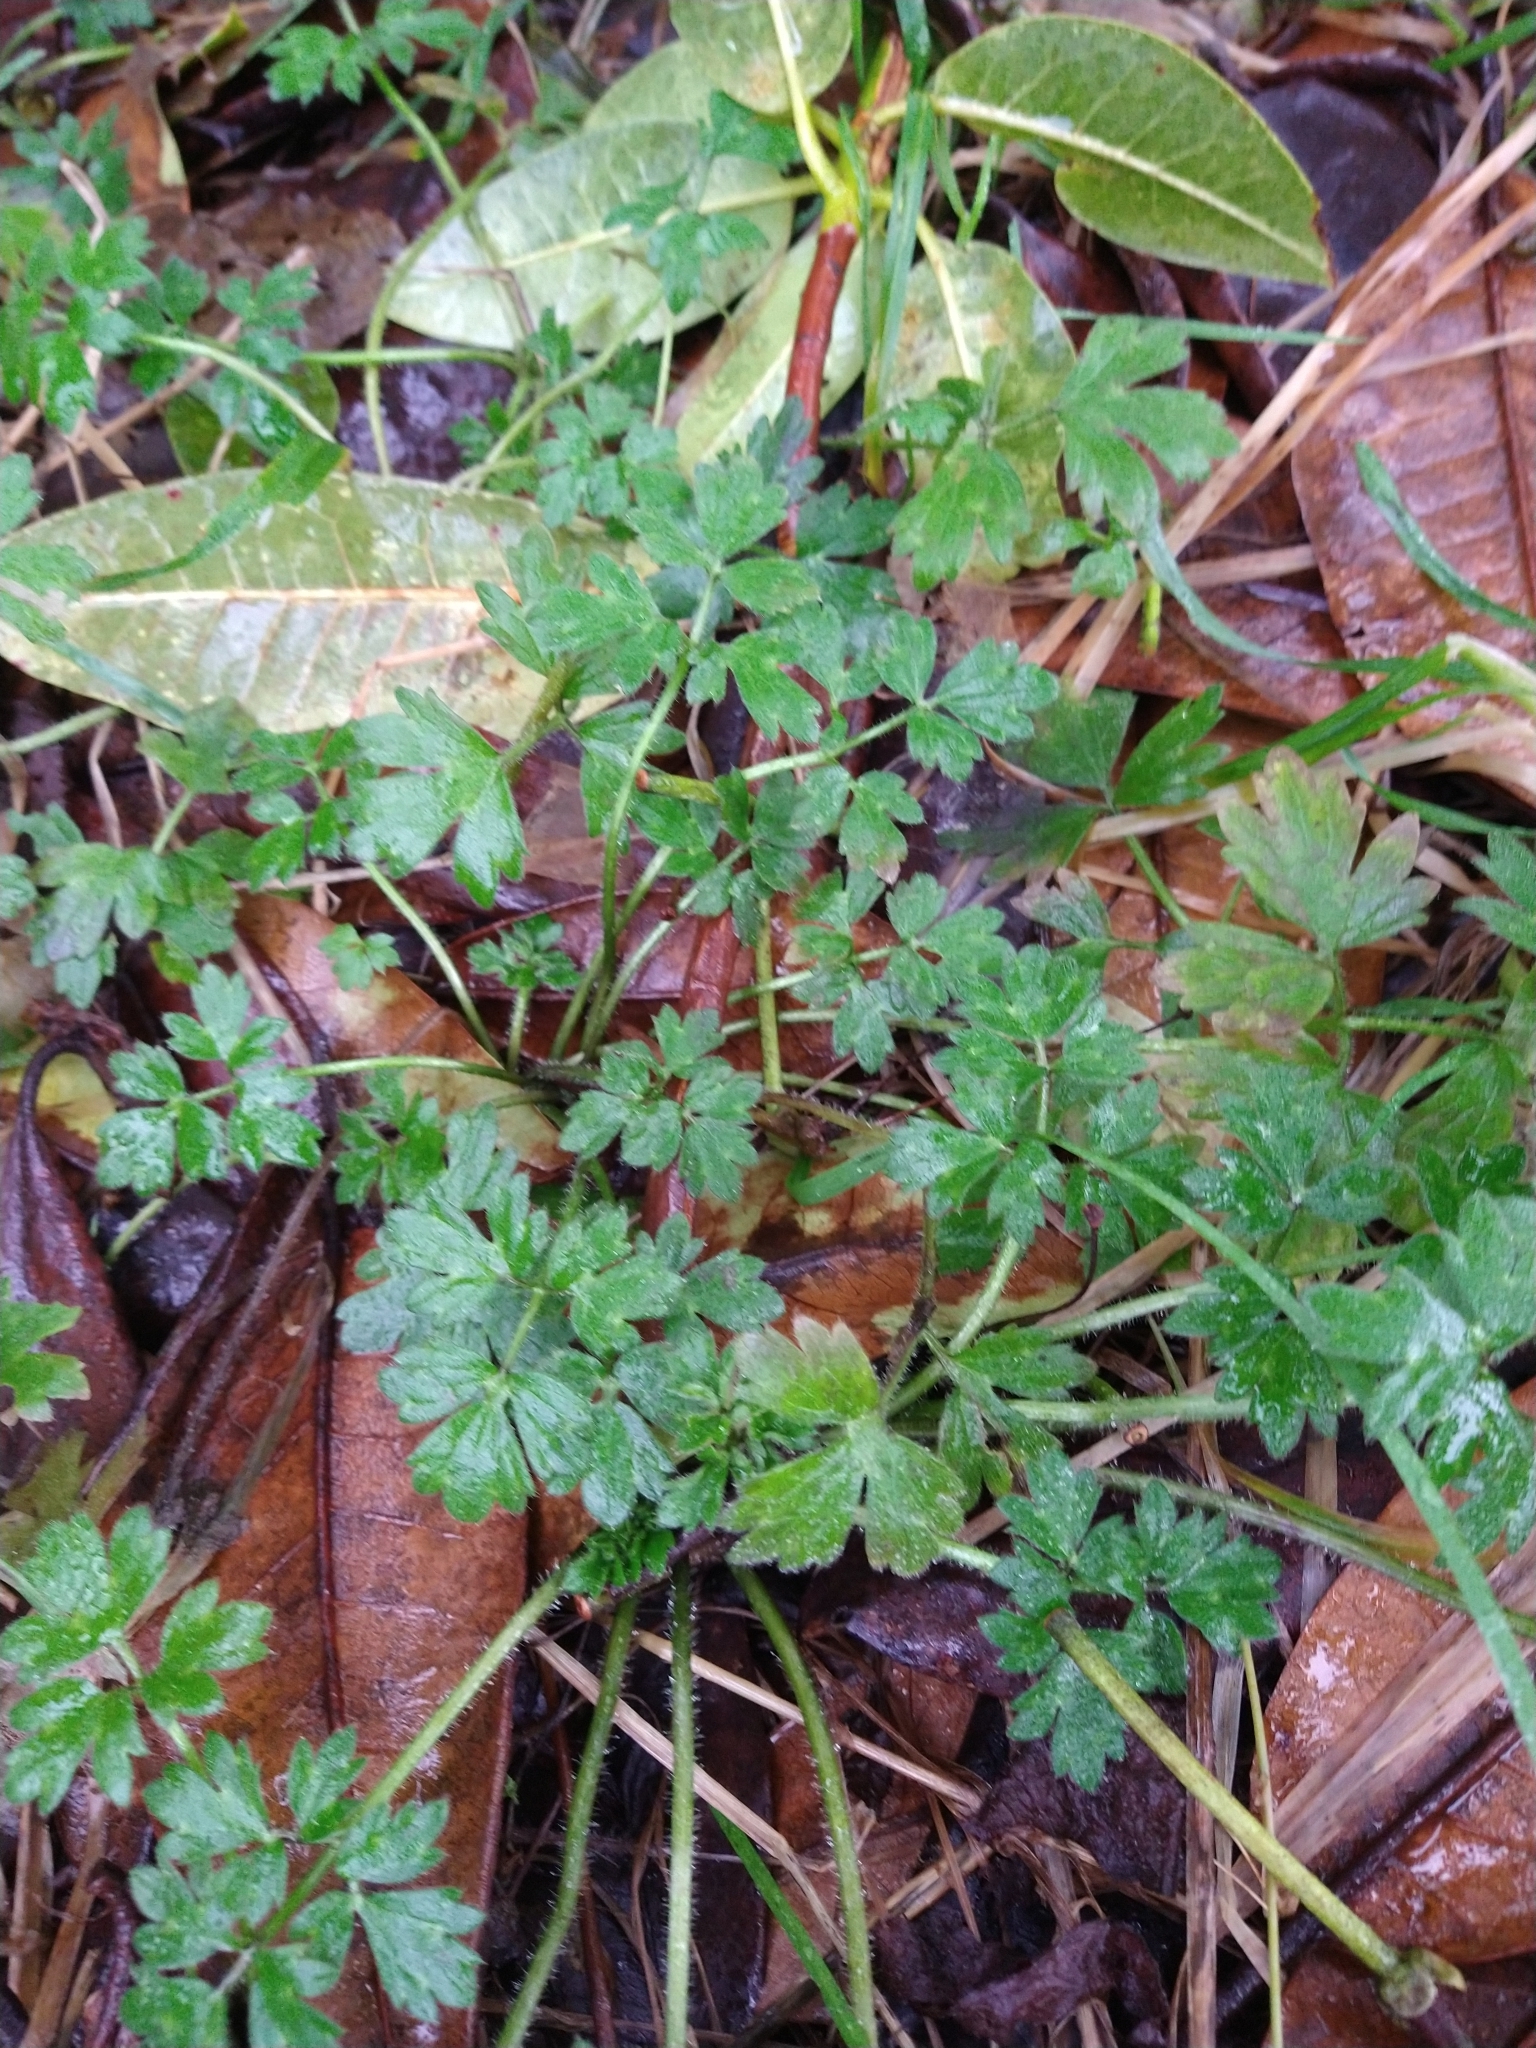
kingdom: Plantae
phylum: Tracheophyta
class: Magnoliopsida
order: Ranunculales
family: Ranunculaceae
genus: Ranunculus
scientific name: Ranunculus repens
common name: Creeping buttercup
